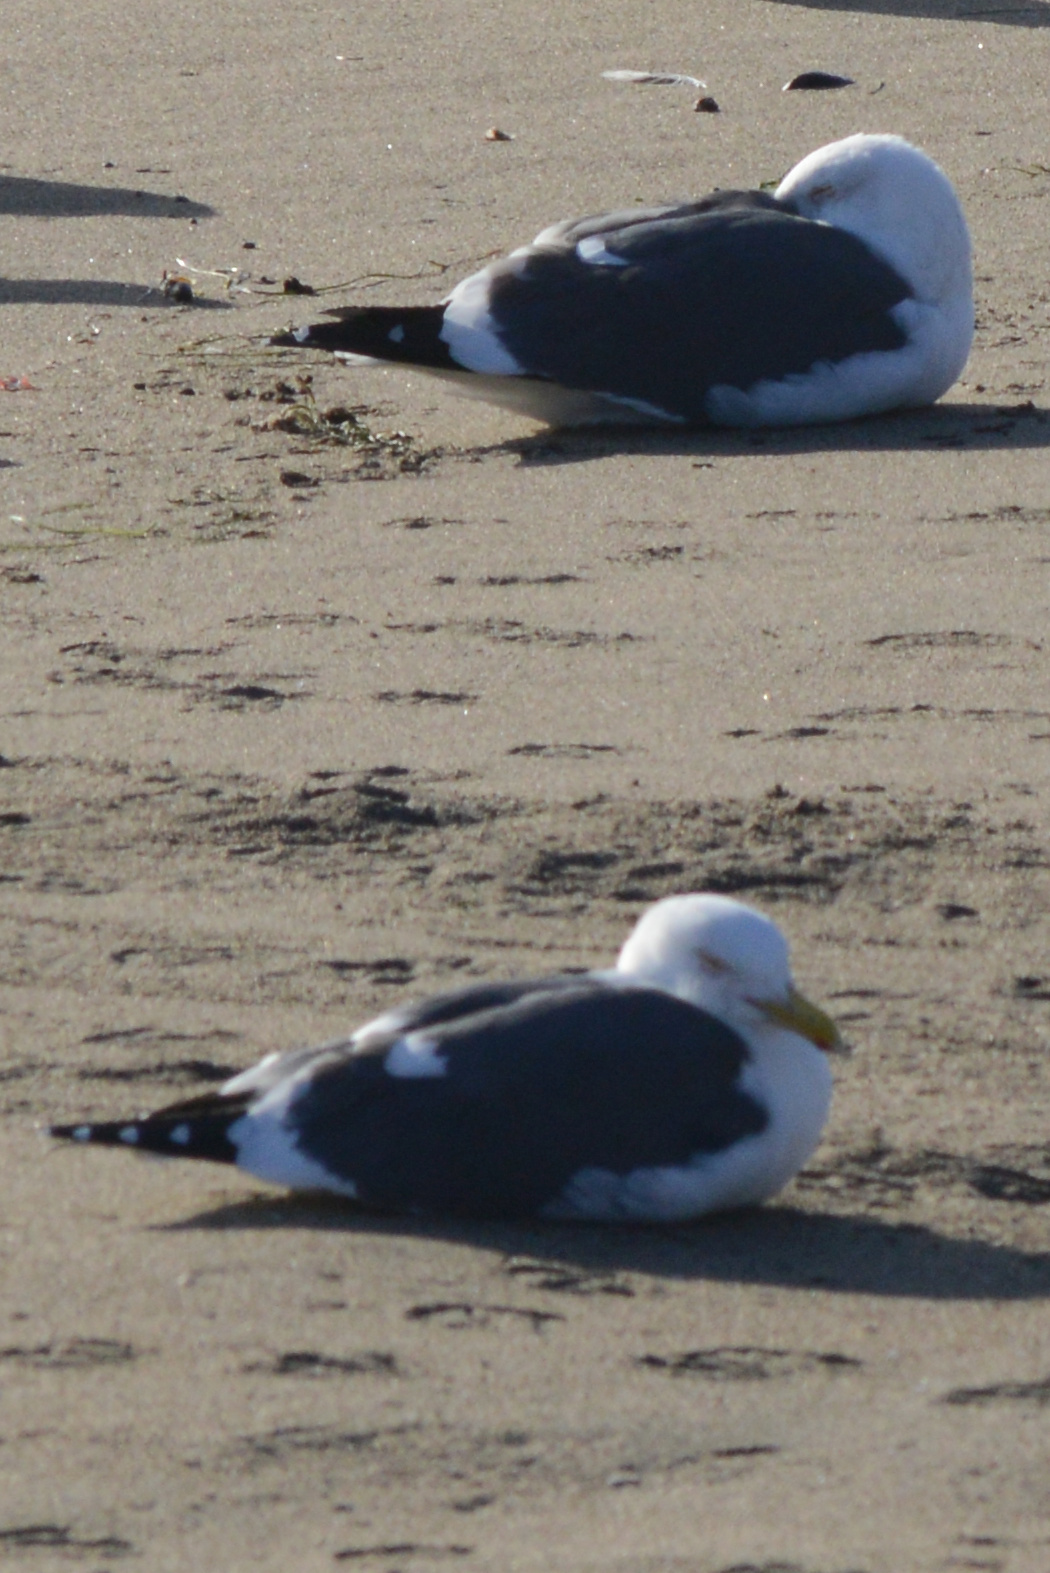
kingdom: Animalia
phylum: Chordata
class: Aves
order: Charadriiformes
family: Laridae
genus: Larus
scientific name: Larus occidentalis
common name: Western gull
